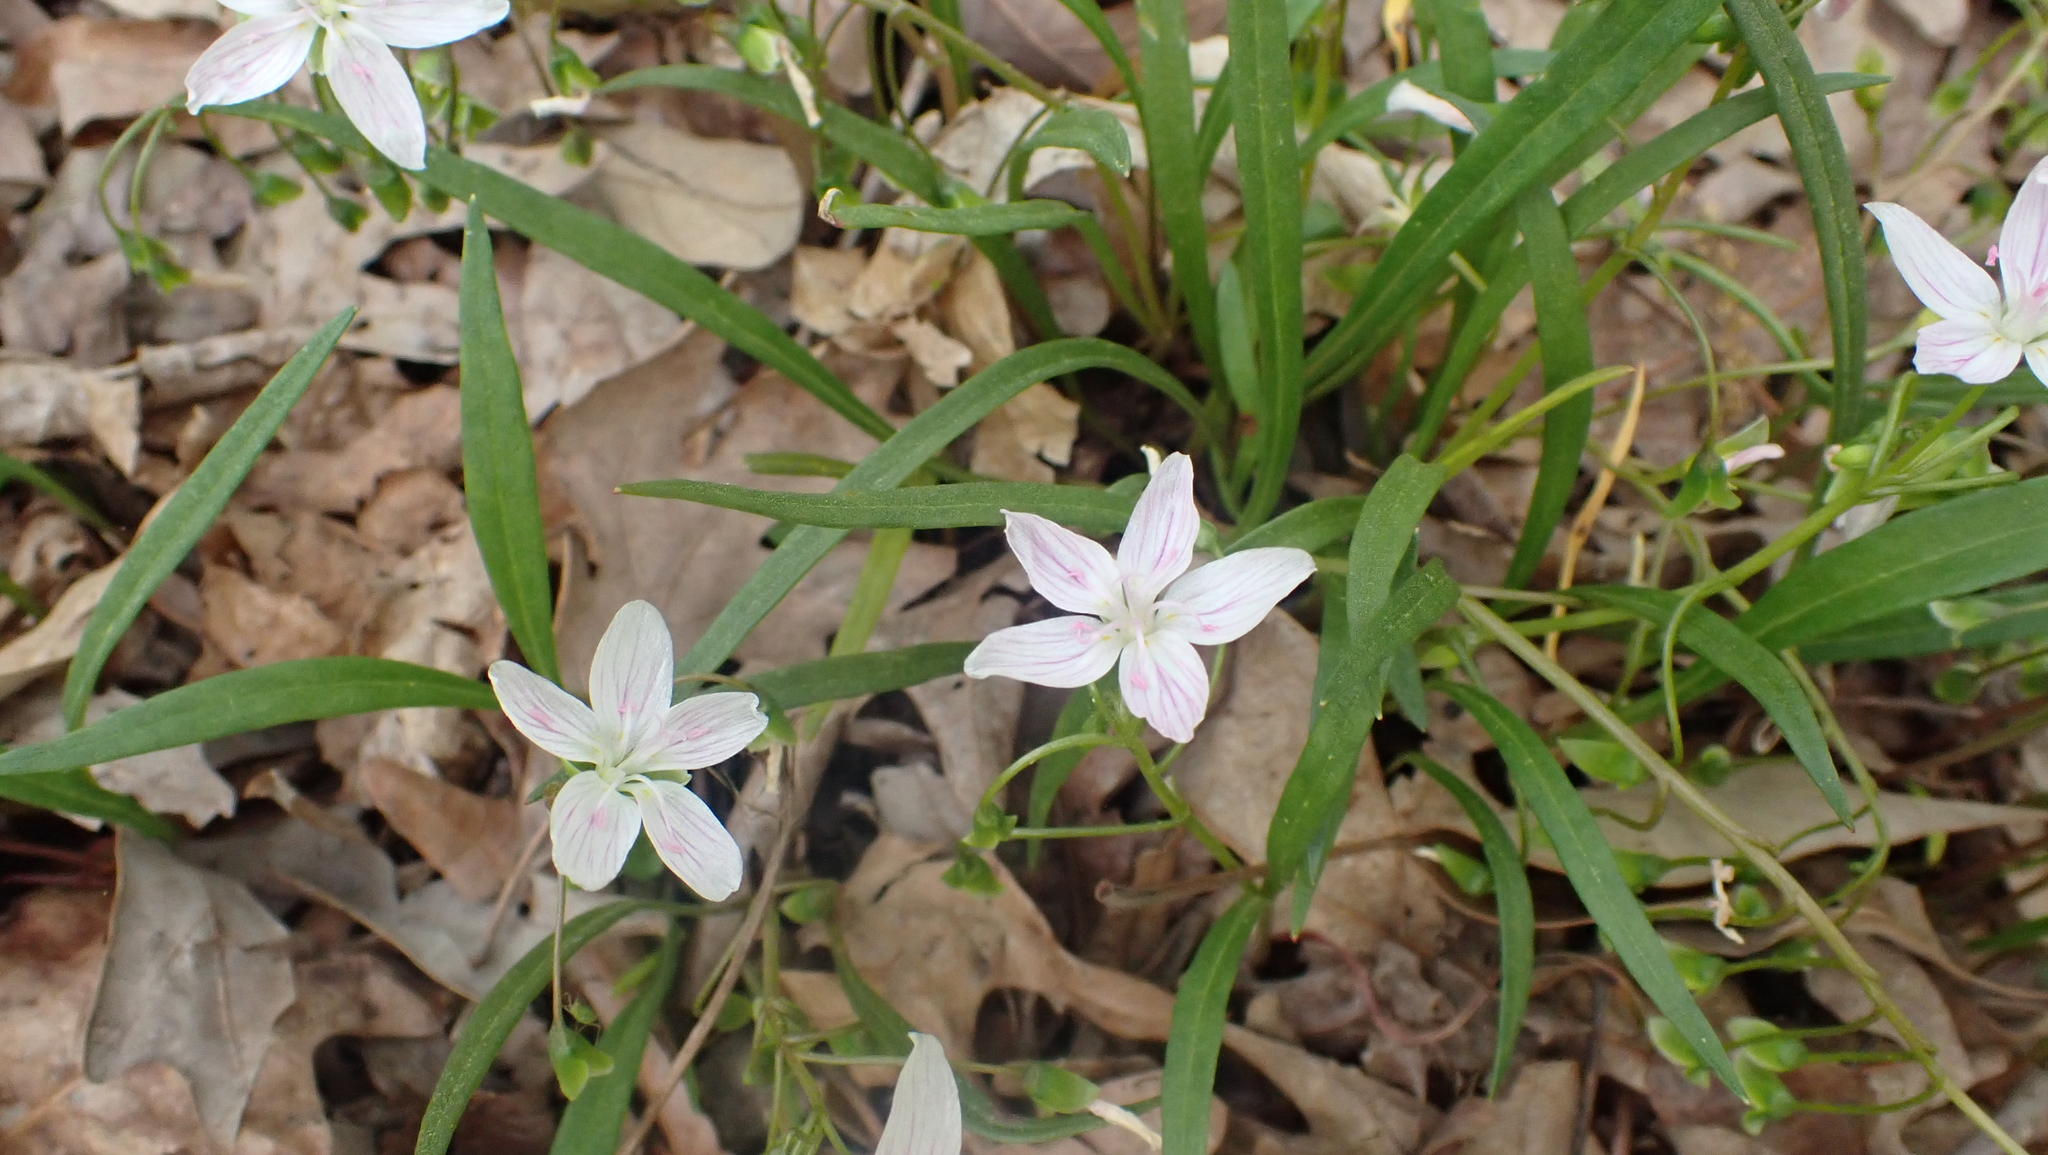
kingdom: Plantae
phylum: Tracheophyta
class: Magnoliopsida
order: Caryophyllales
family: Montiaceae
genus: Claytonia
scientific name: Claytonia virginica
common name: Virginia springbeauty
